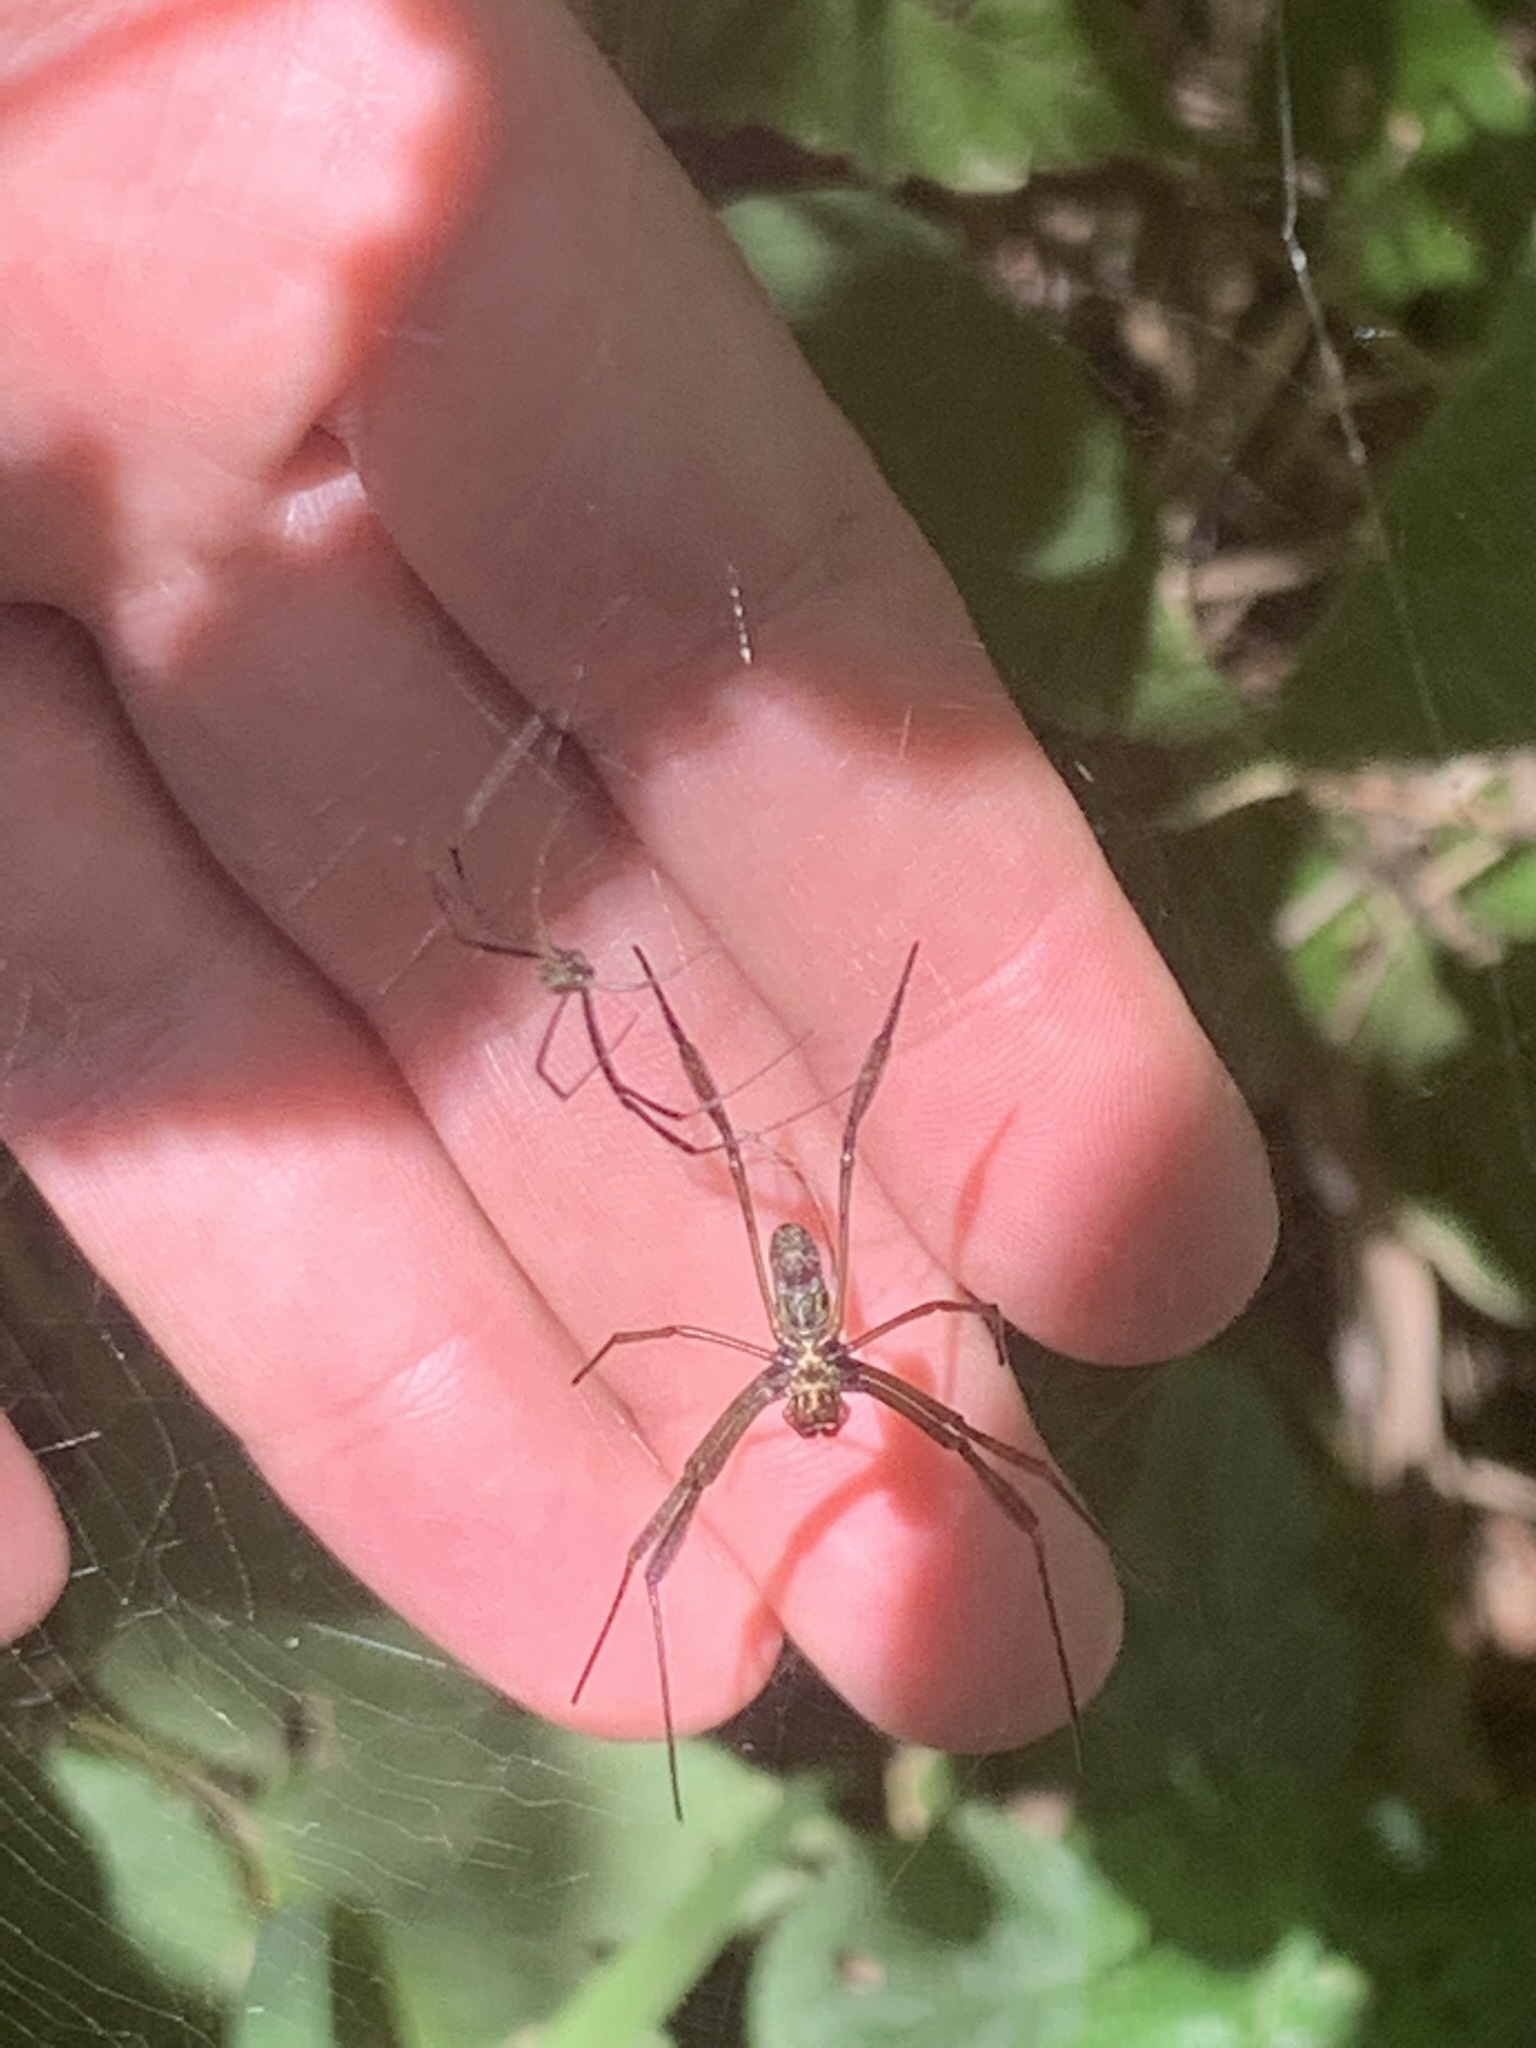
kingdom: Animalia
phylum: Arthropoda
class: Arachnida
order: Araneae
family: Araneidae
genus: Trichonephila
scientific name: Trichonephila clavipes
